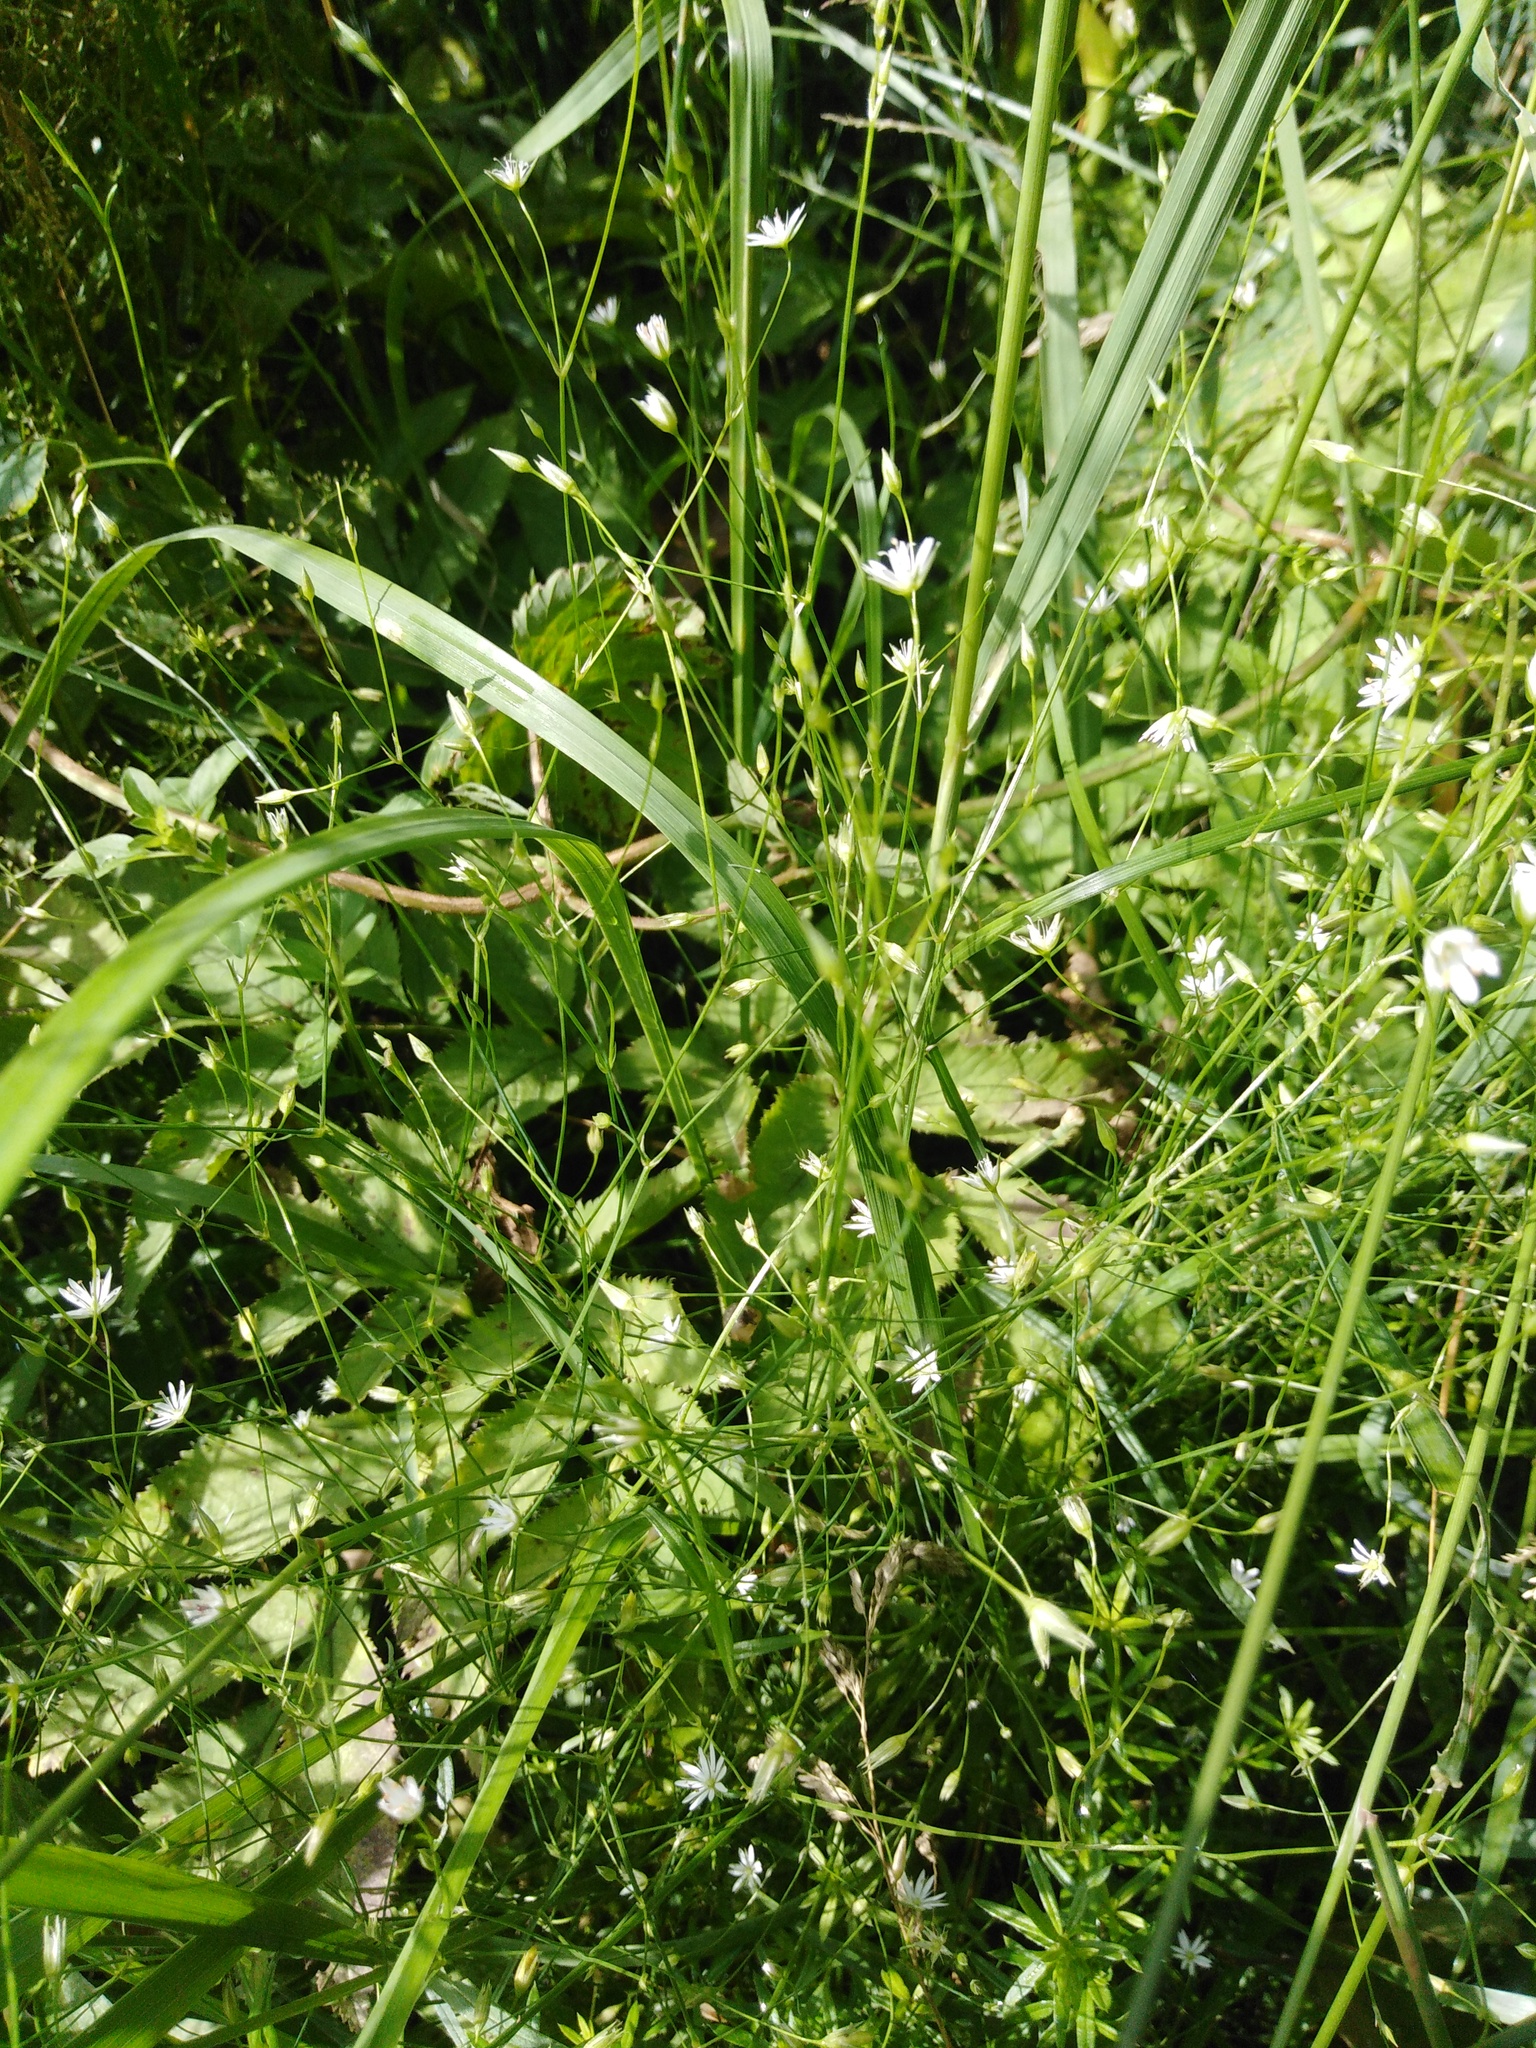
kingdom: Plantae
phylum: Tracheophyta
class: Magnoliopsida
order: Caryophyllales
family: Caryophyllaceae
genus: Stellaria
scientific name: Stellaria graminea
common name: Grass-like starwort
